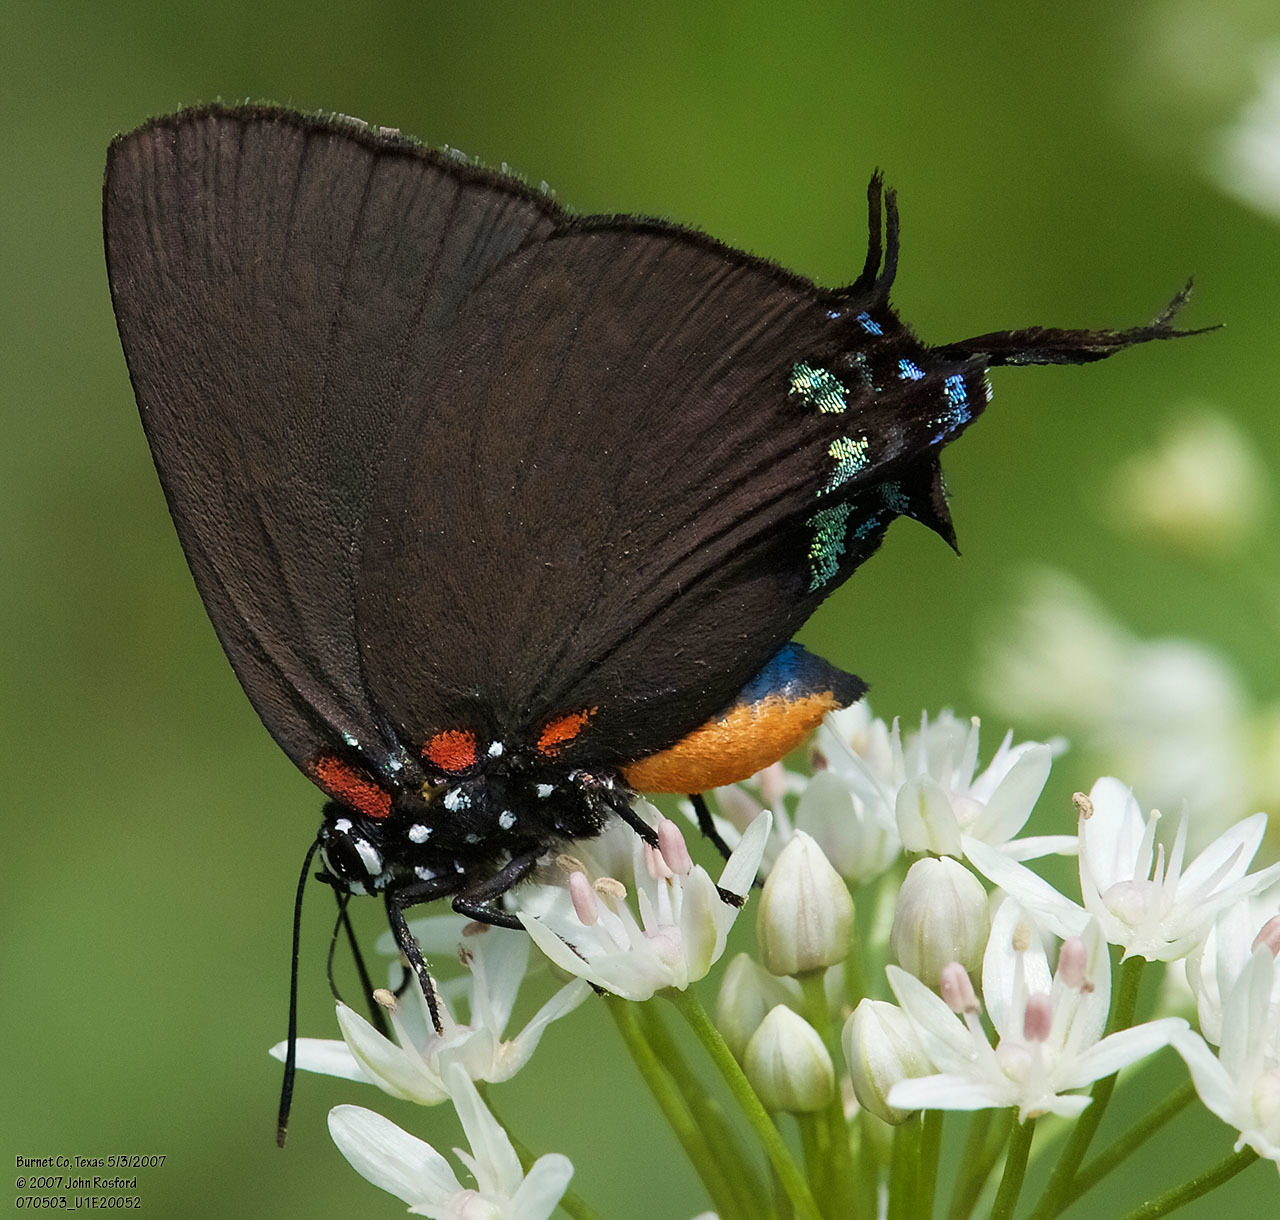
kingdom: Animalia
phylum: Arthropoda
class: Insecta
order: Lepidoptera
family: Lycaenidae
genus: Atlides
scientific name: Atlides halesus
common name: Great purple hairstreak
